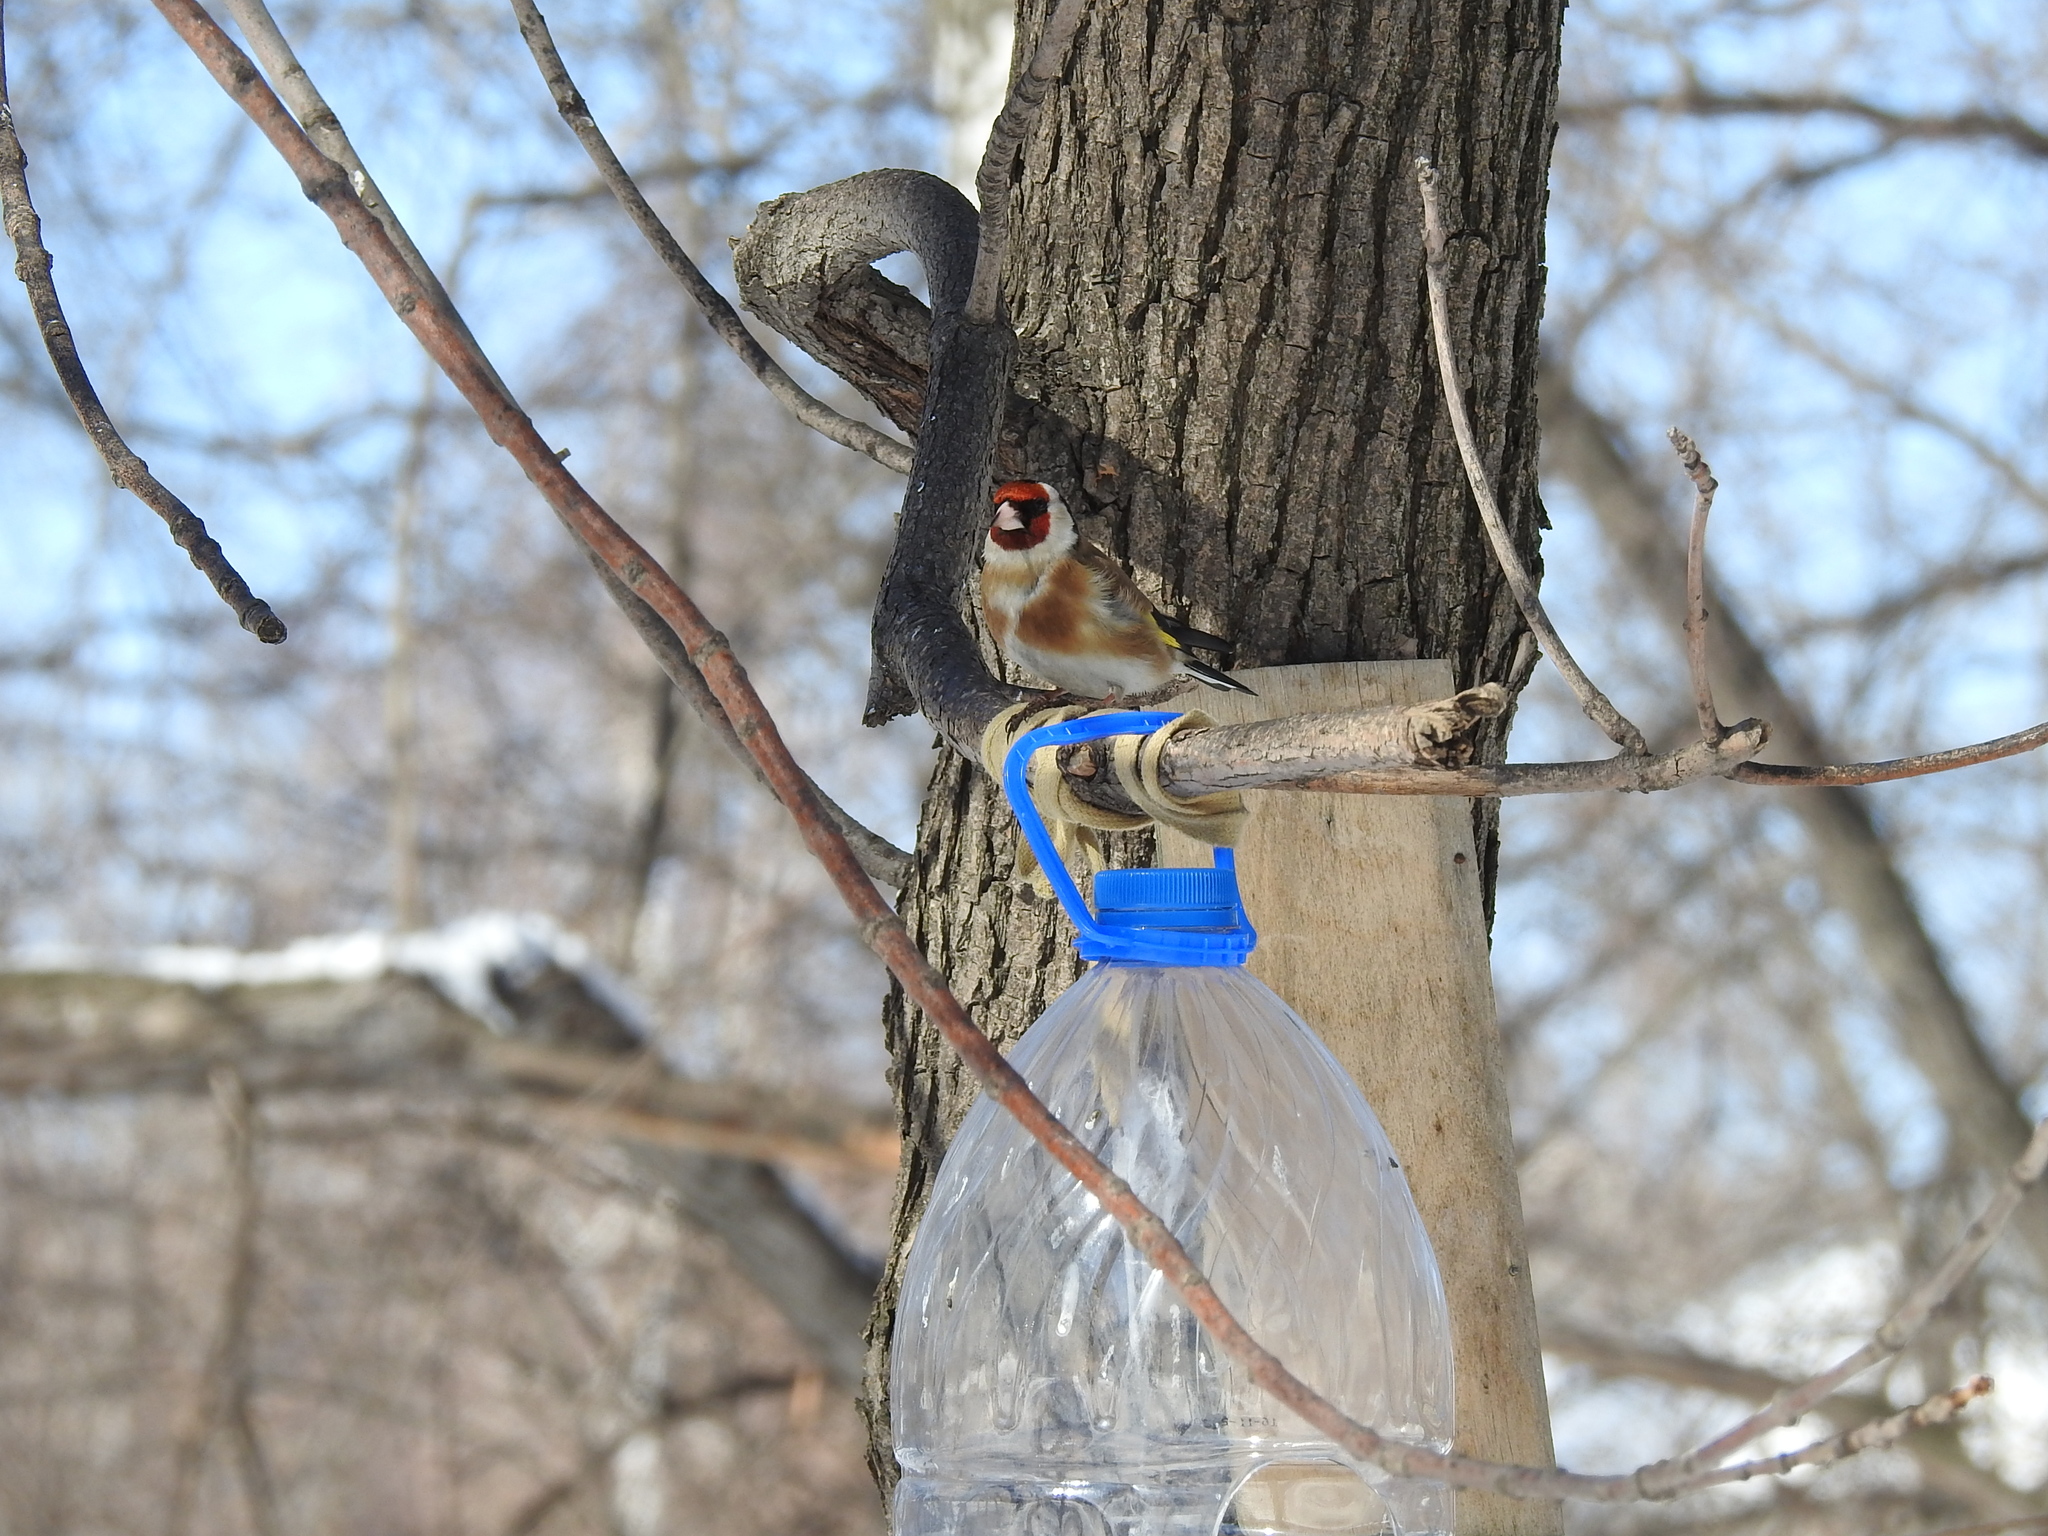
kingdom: Animalia
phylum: Chordata
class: Aves
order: Passeriformes
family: Fringillidae
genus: Carduelis
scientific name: Carduelis carduelis
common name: European goldfinch
